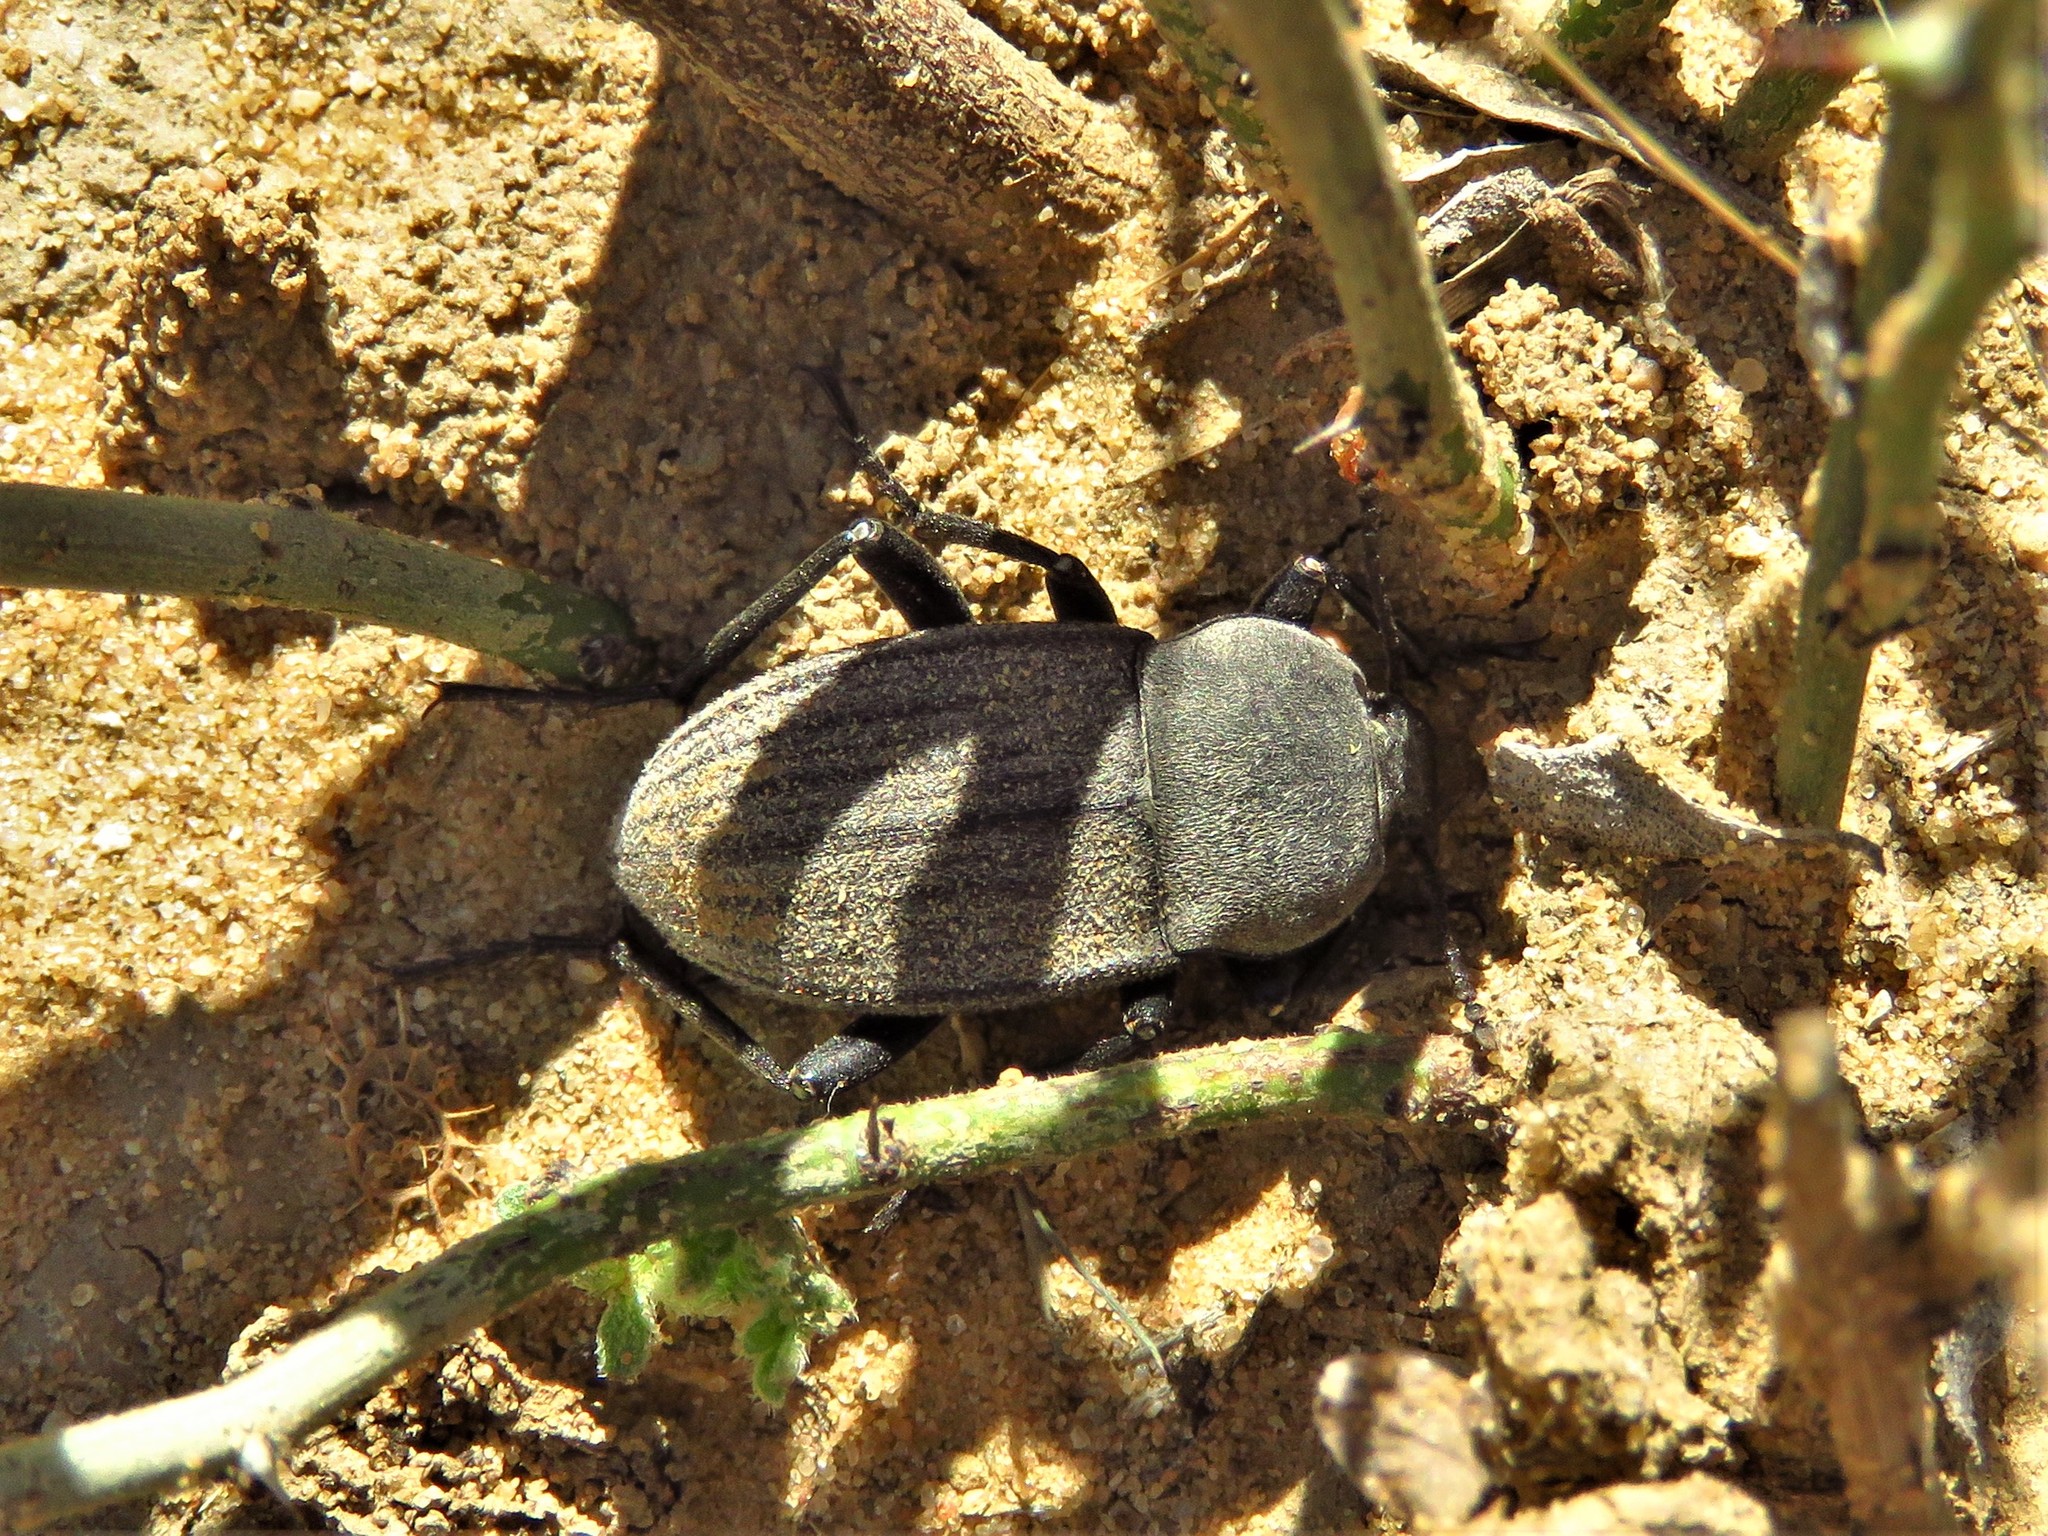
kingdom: Animalia
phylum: Arthropoda
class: Insecta
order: Coleoptera
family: Tenebrionidae
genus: Eleodes
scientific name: Eleodes tricostata
